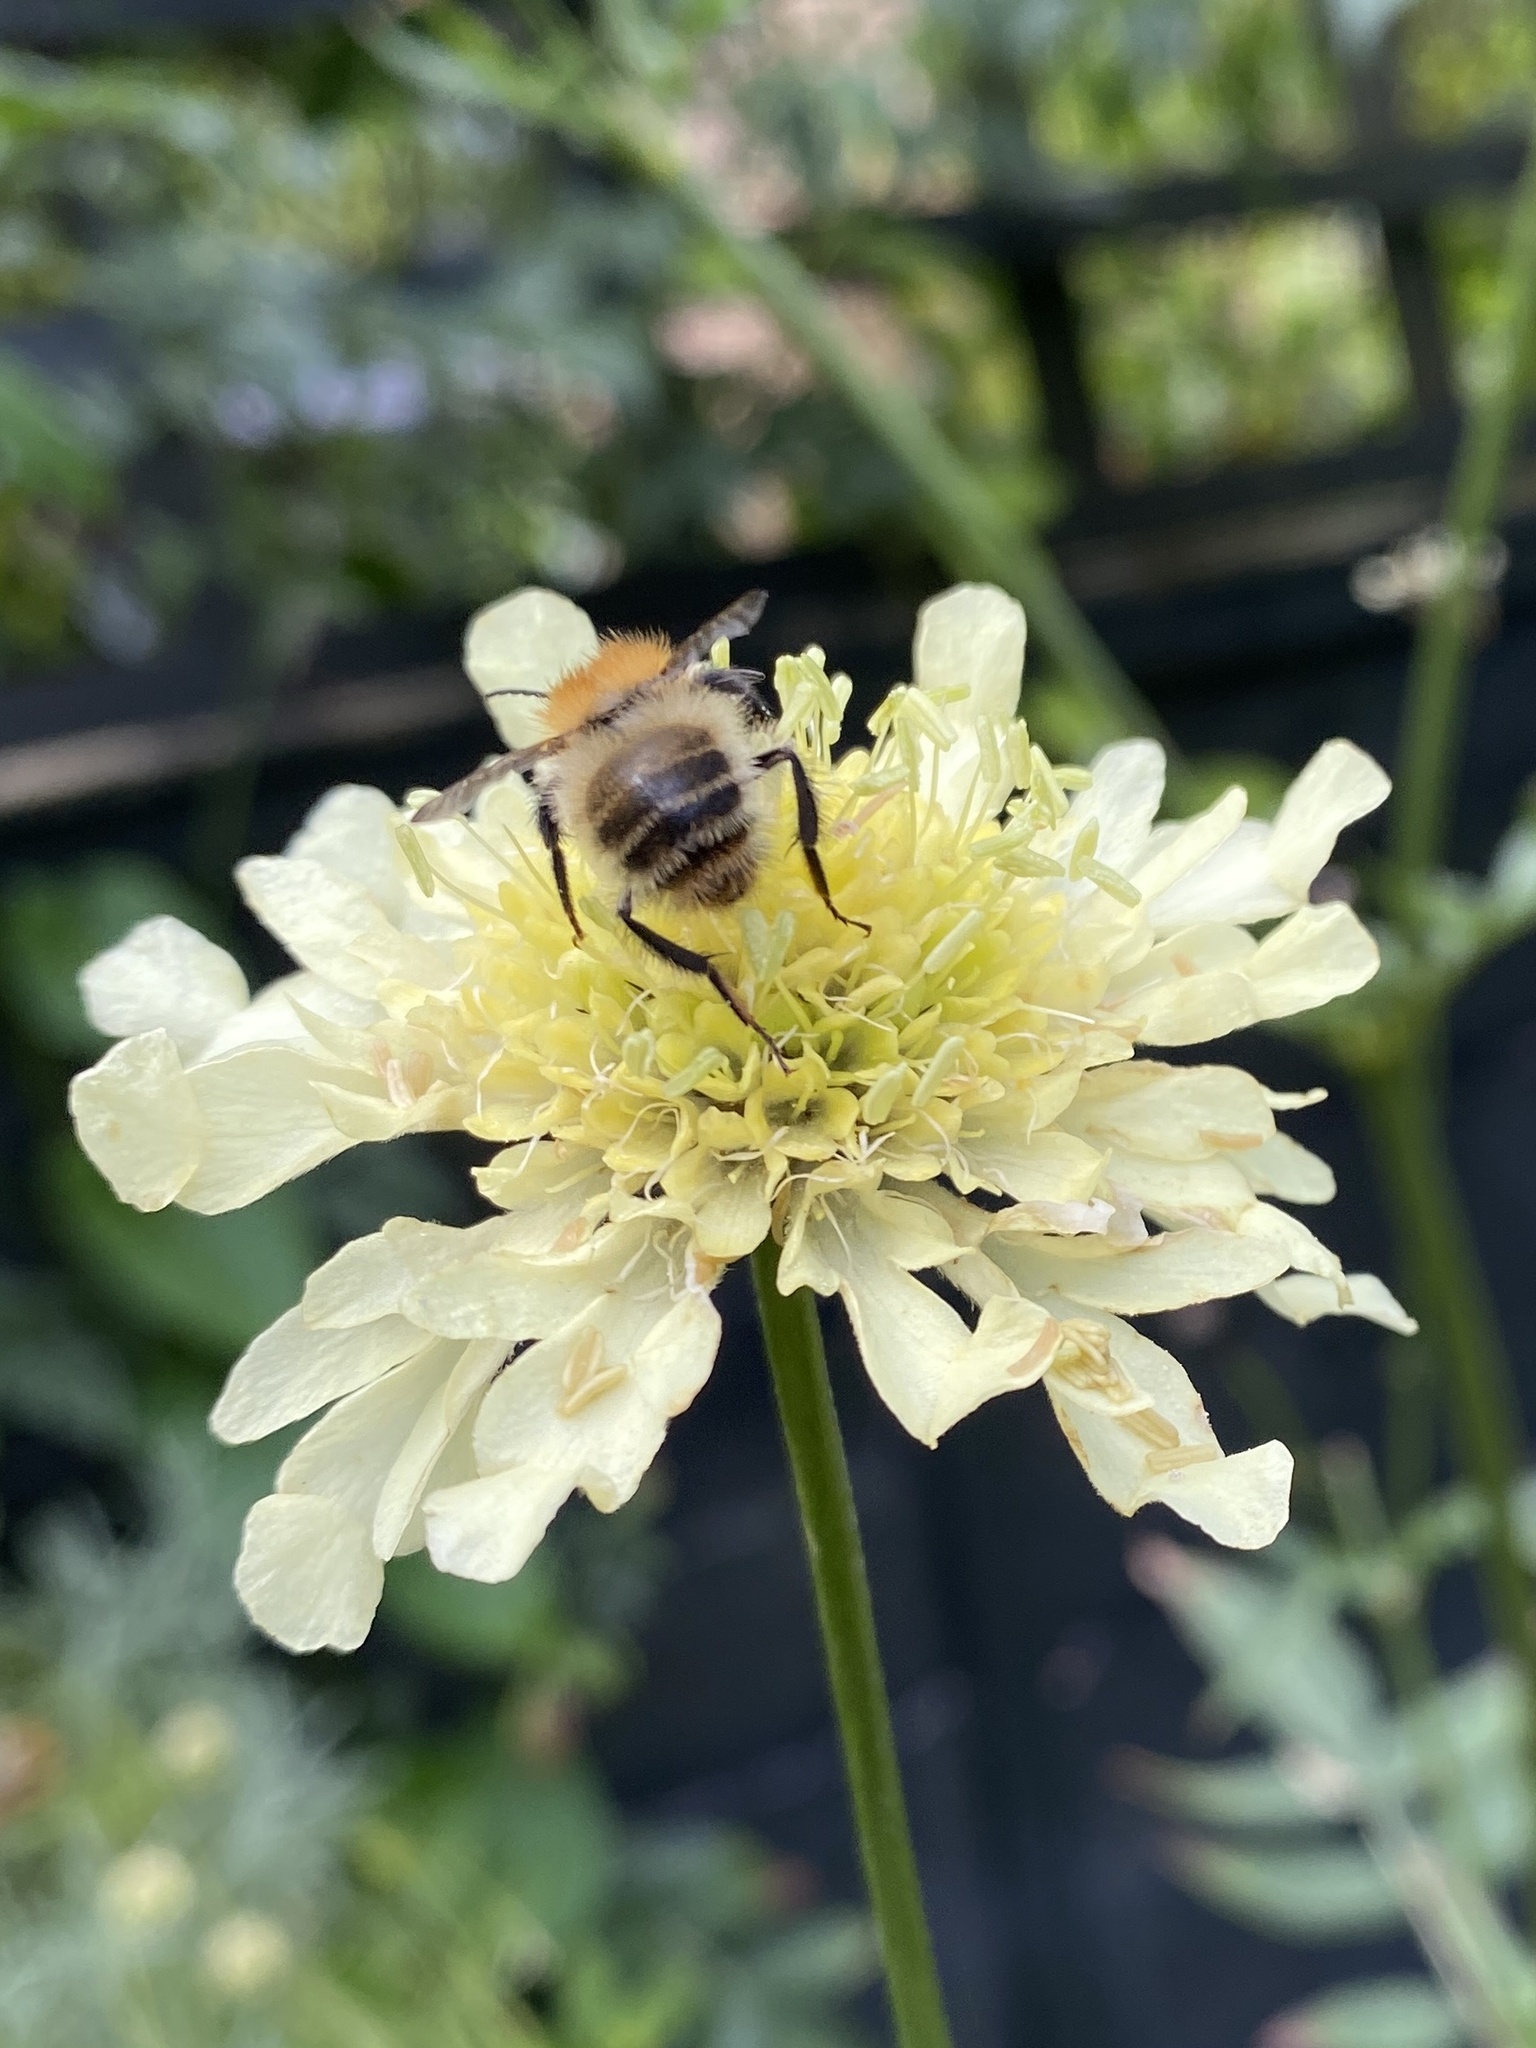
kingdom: Animalia
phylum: Arthropoda
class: Insecta
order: Hymenoptera
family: Apidae
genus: Bombus
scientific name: Bombus pascuorum
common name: Common carder bee
